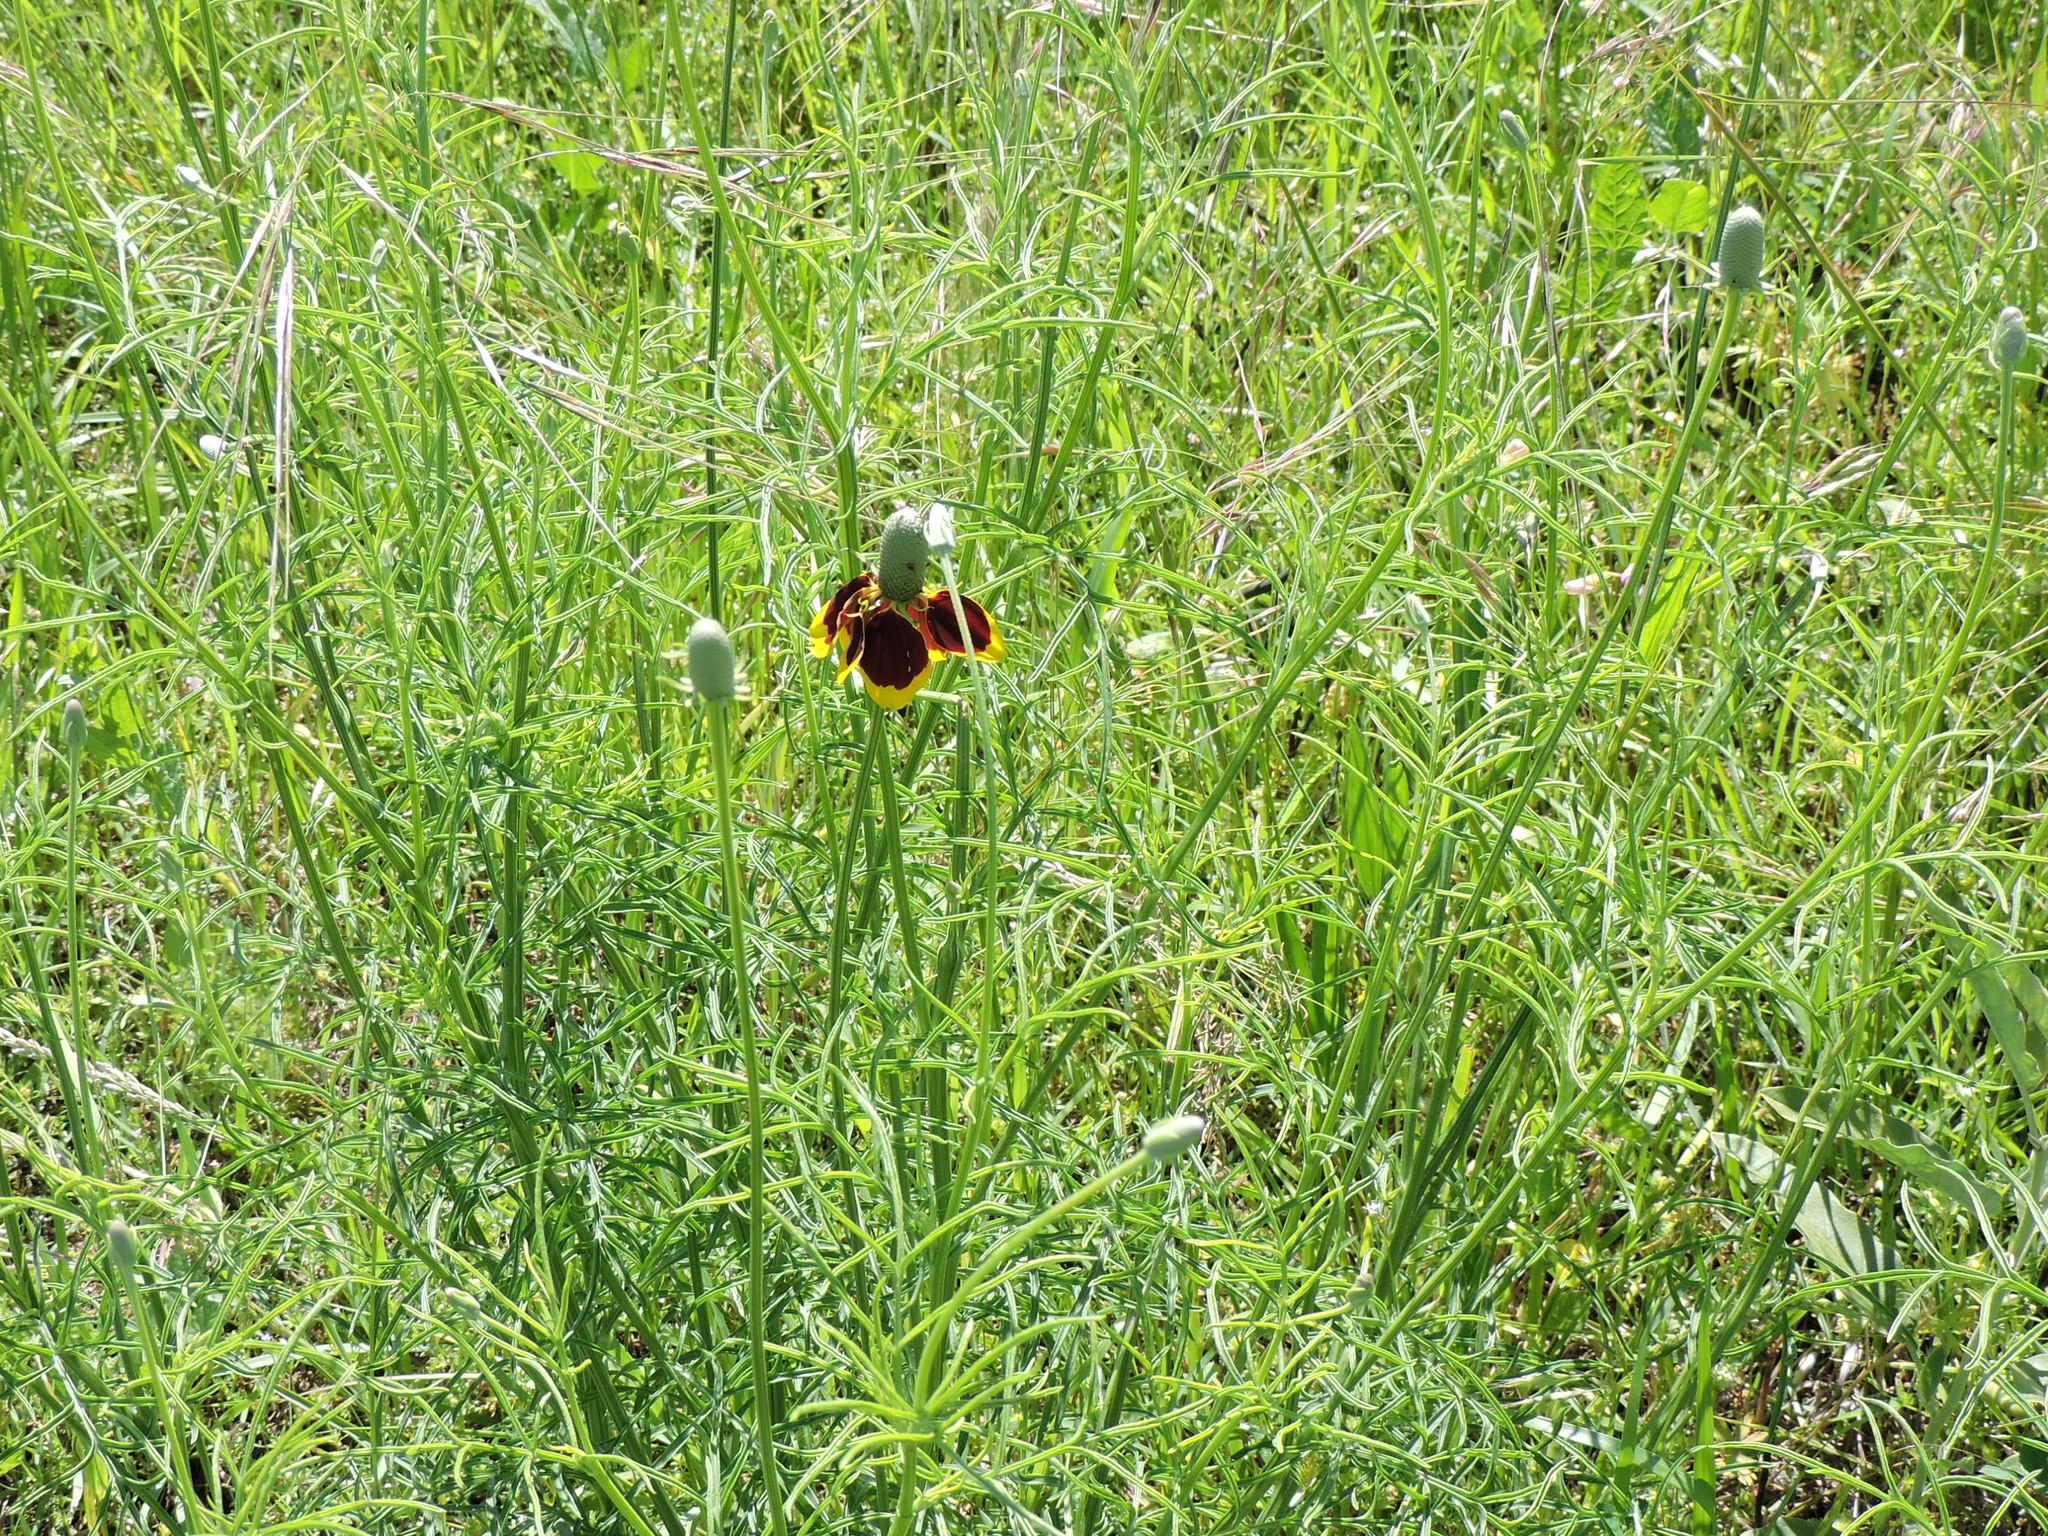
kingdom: Plantae
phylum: Tracheophyta
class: Magnoliopsida
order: Asterales
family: Asteraceae
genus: Ratibida
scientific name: Ratibida columnifera
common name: Prairie coneflower
